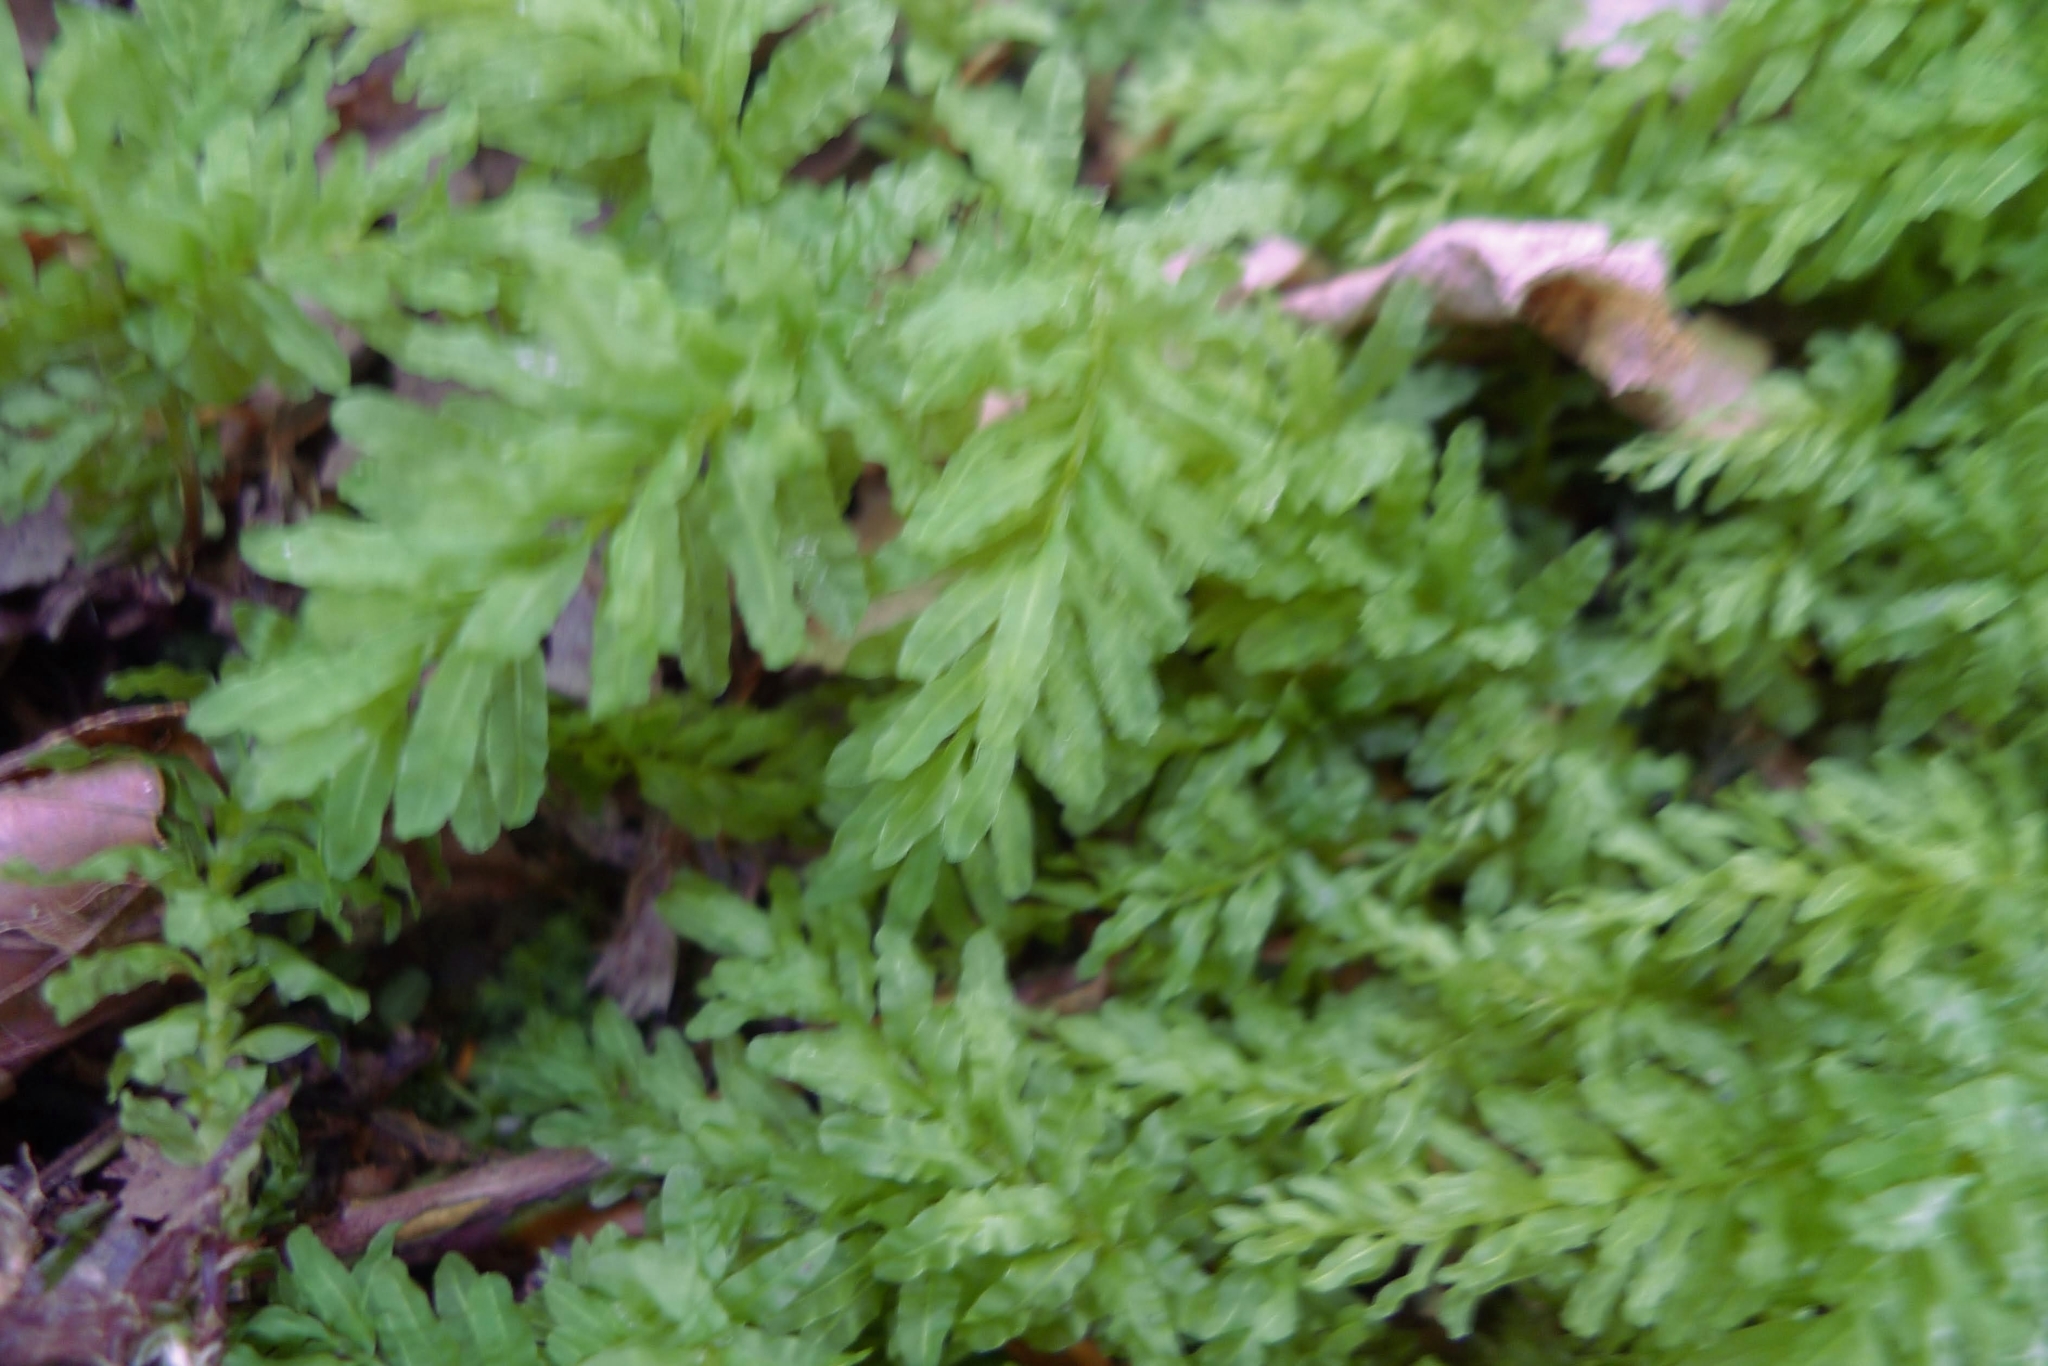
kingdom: Plantae
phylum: Bryophyta
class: Bryopsida
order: Bryales
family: Mniaceae
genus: Plagiomnium
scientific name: Plagiomnium undulatum
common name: Hart's-tongue thyme-moss
